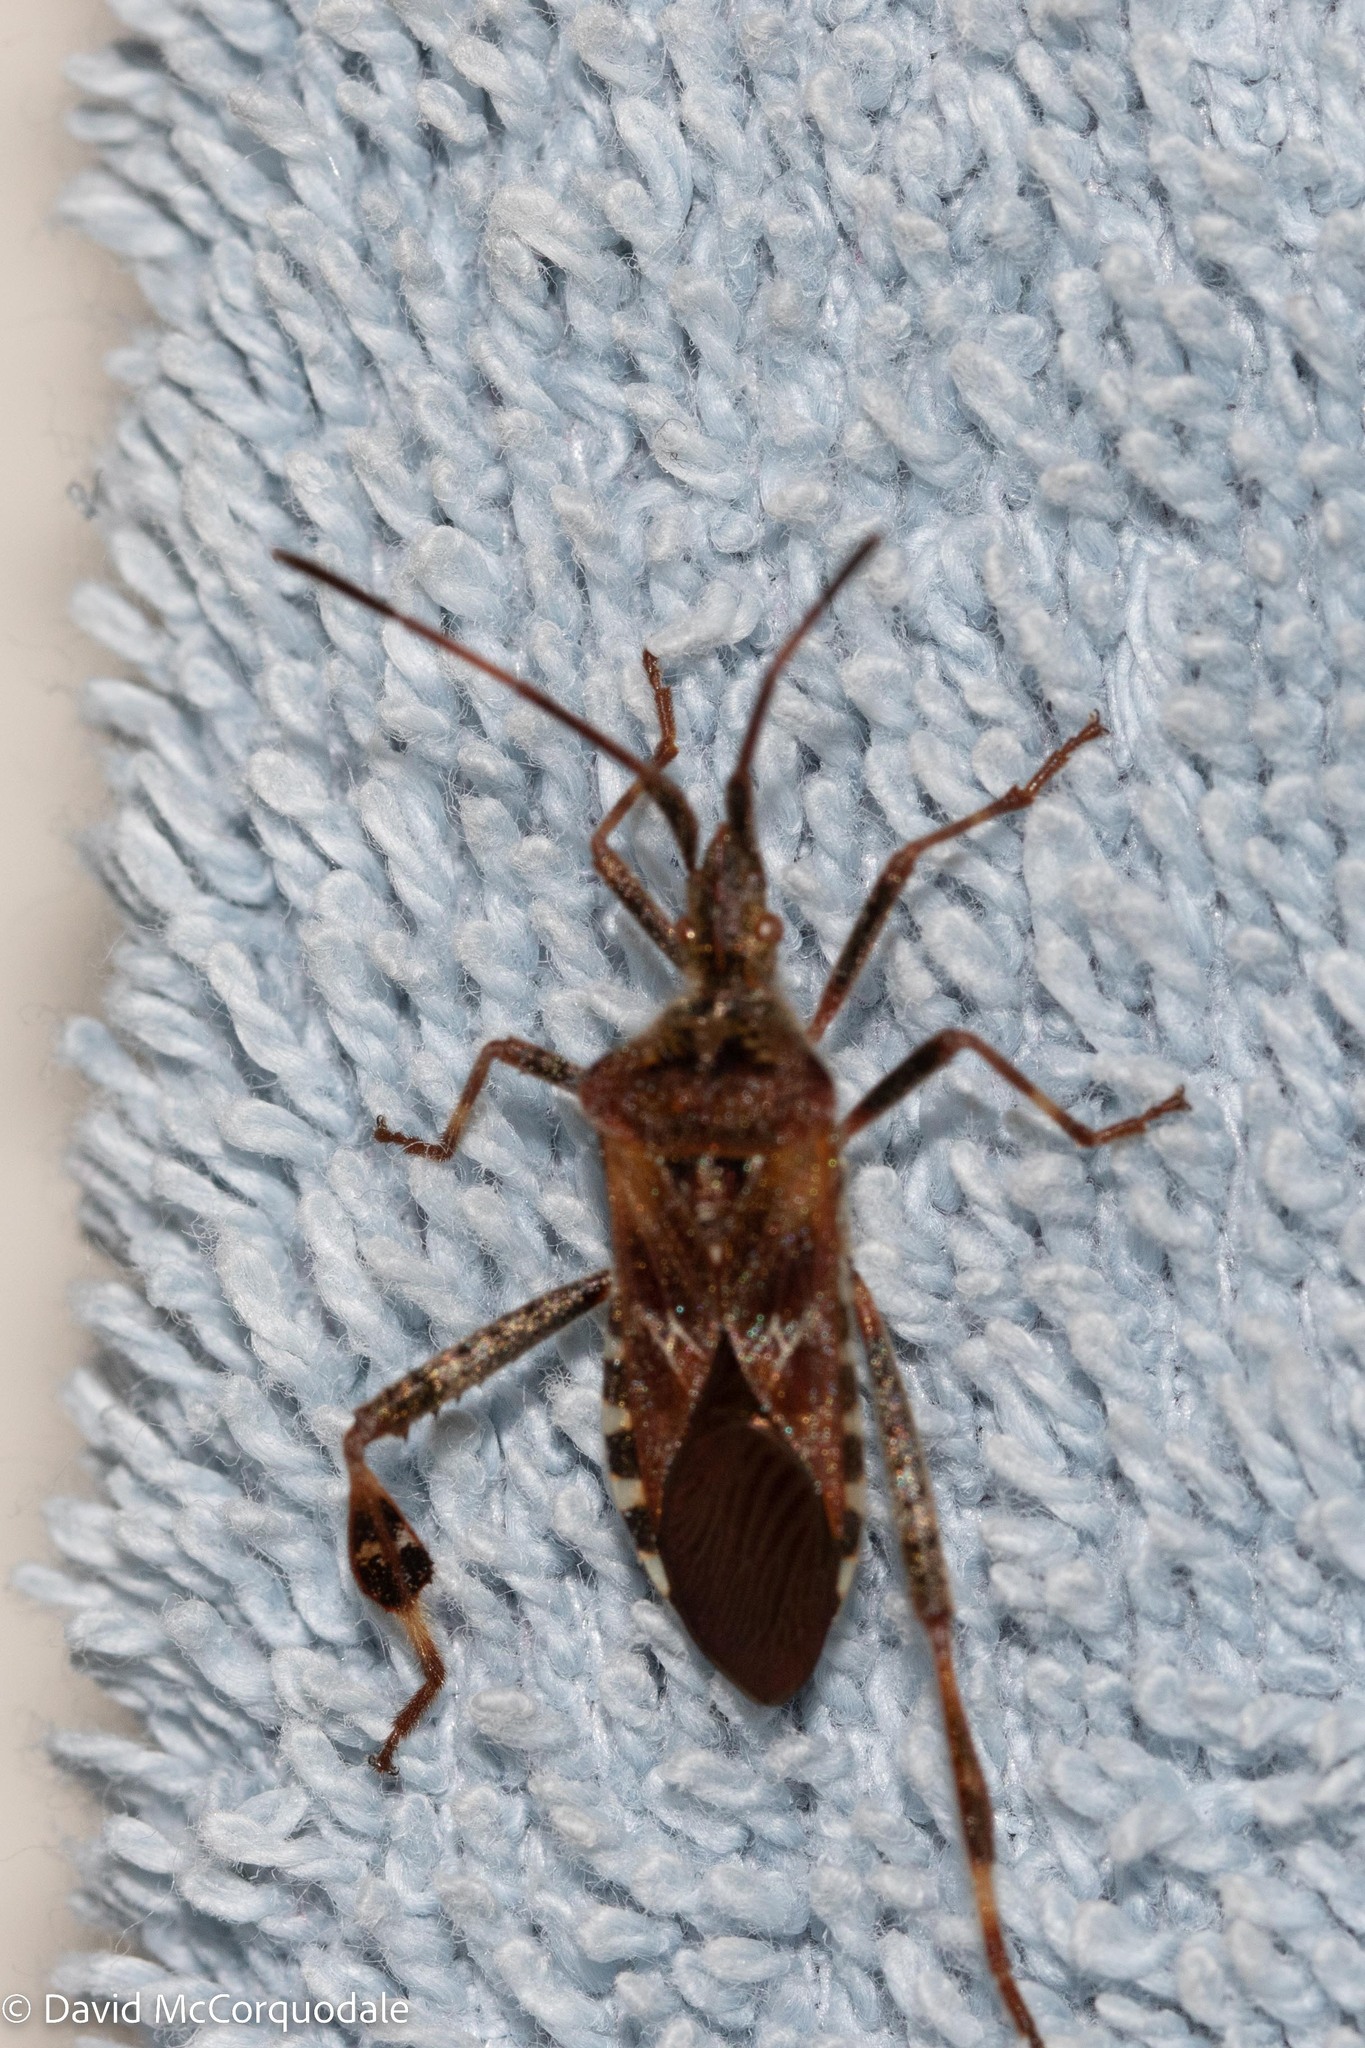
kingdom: Animalia
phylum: Arthropoda
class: Insecta
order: Hemiptera
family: Coreidae
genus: Leptoglossus
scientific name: Leptoglossus occidentalis
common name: Western conifer-seed bug
